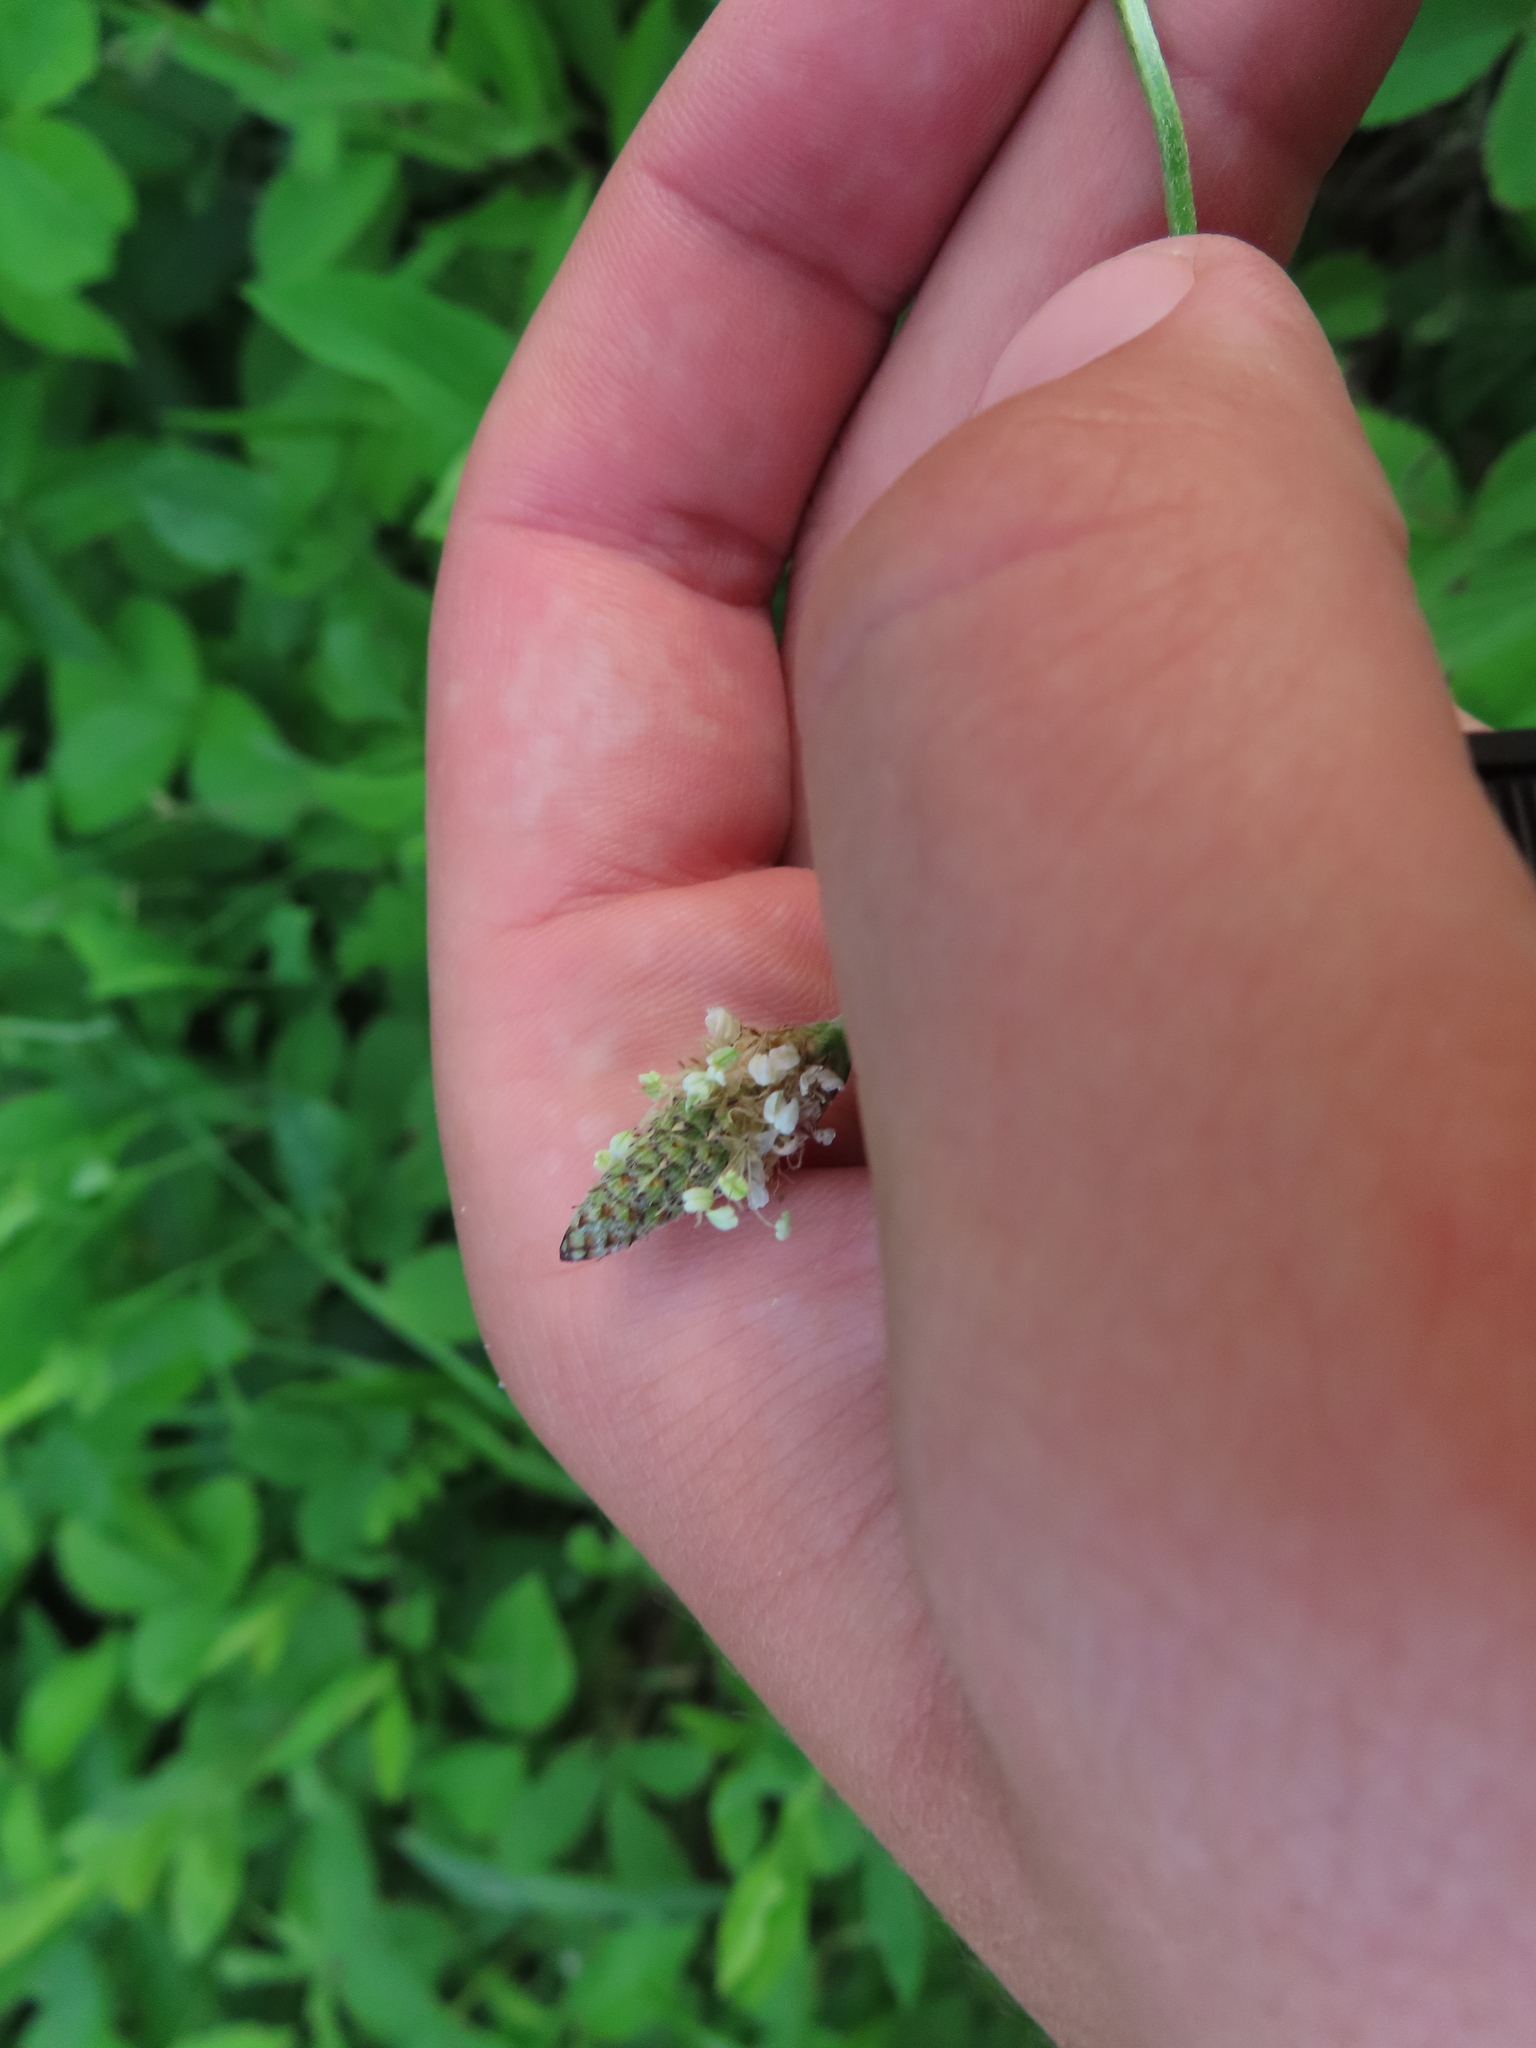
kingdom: Plantae
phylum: Tracheophyta
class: Magnoliopsida
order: Lamiales
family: Plantaginaceae
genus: Plantago
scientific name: Plantago lanceolata
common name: Ribwort plantain
